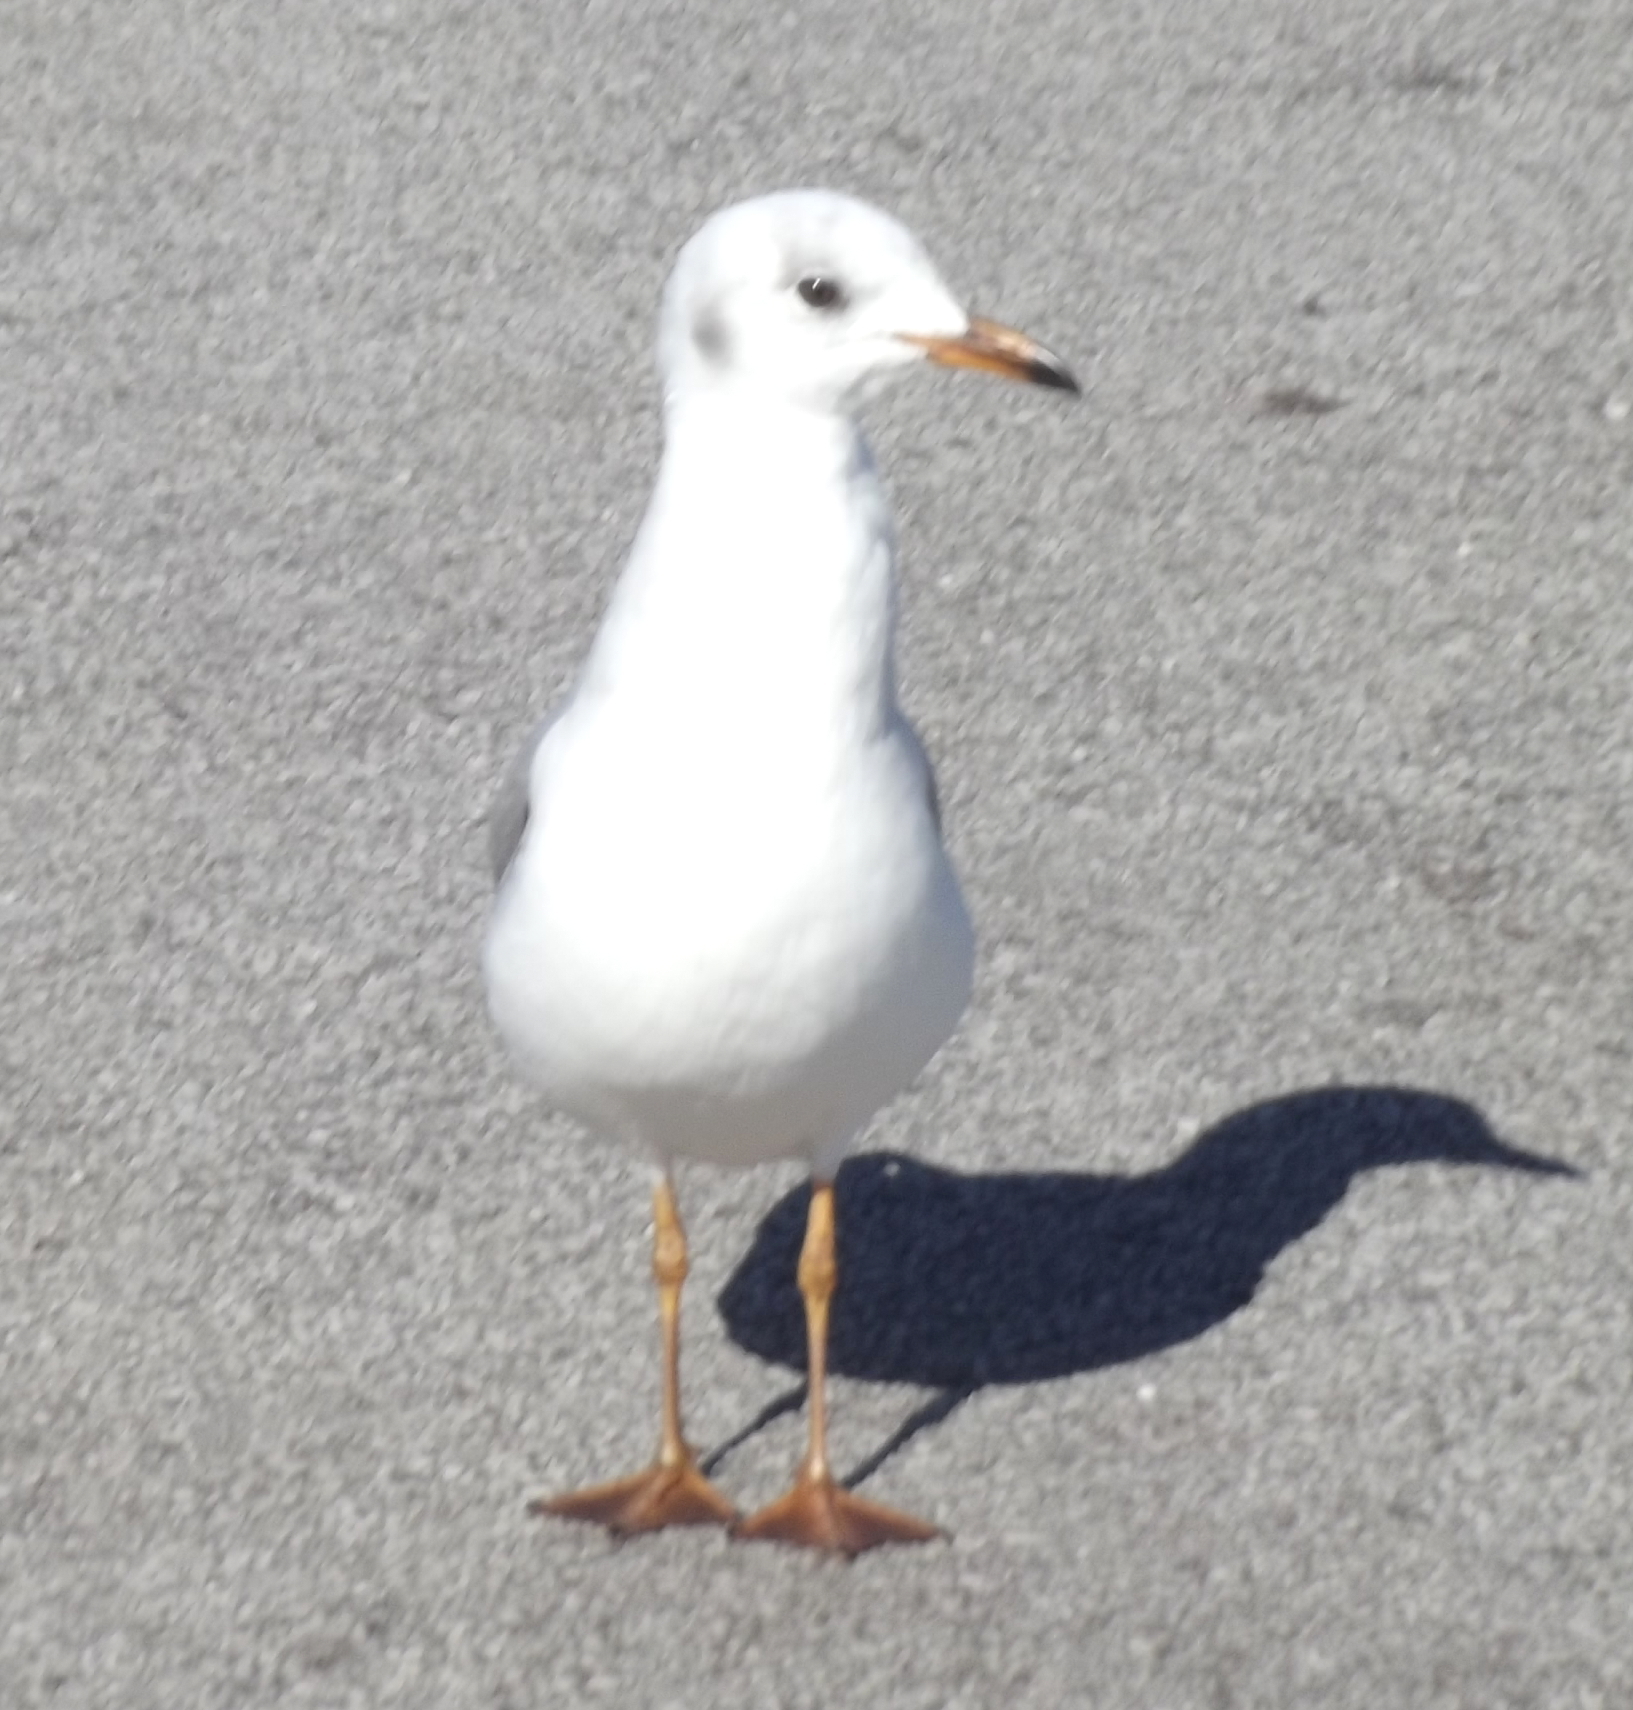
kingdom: Animalia
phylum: Chordata
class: Aves
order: Charadriiformes
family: Laridae
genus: Chroicocephalus
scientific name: Chroicocephalus cirrocephalus
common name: Grey-headed gull
